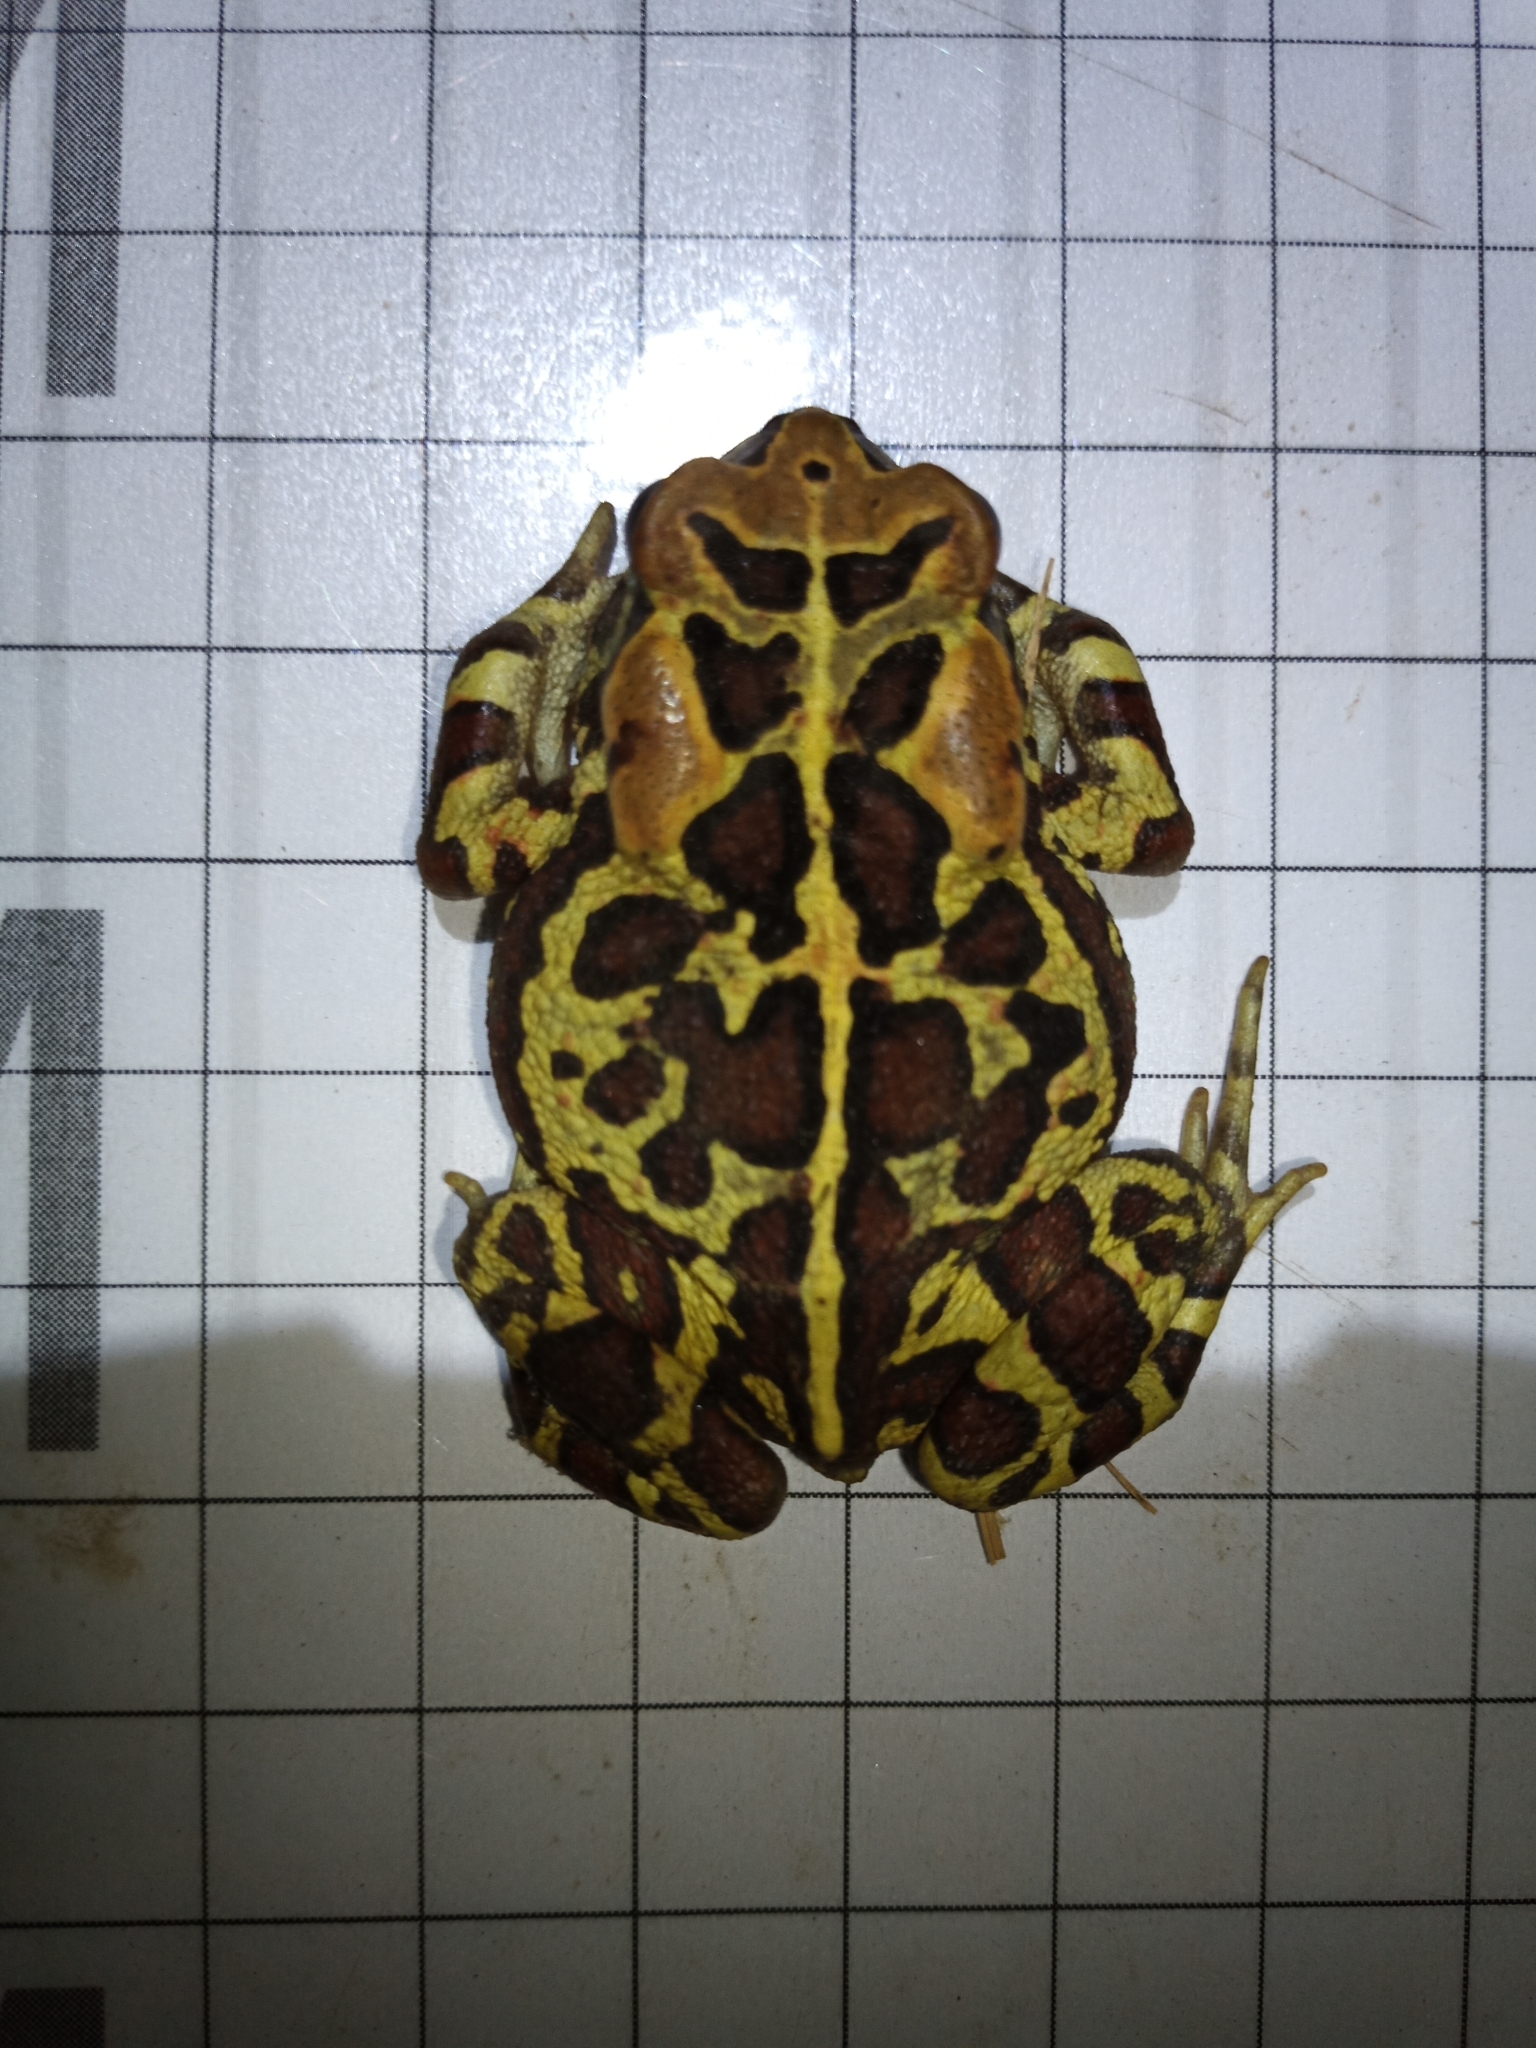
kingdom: Animalia
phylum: Chordata
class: Amphibia
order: Anura
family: Bufonidae
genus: Sclerophrys
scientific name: Sclerophrys pantherina
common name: Panther toad
